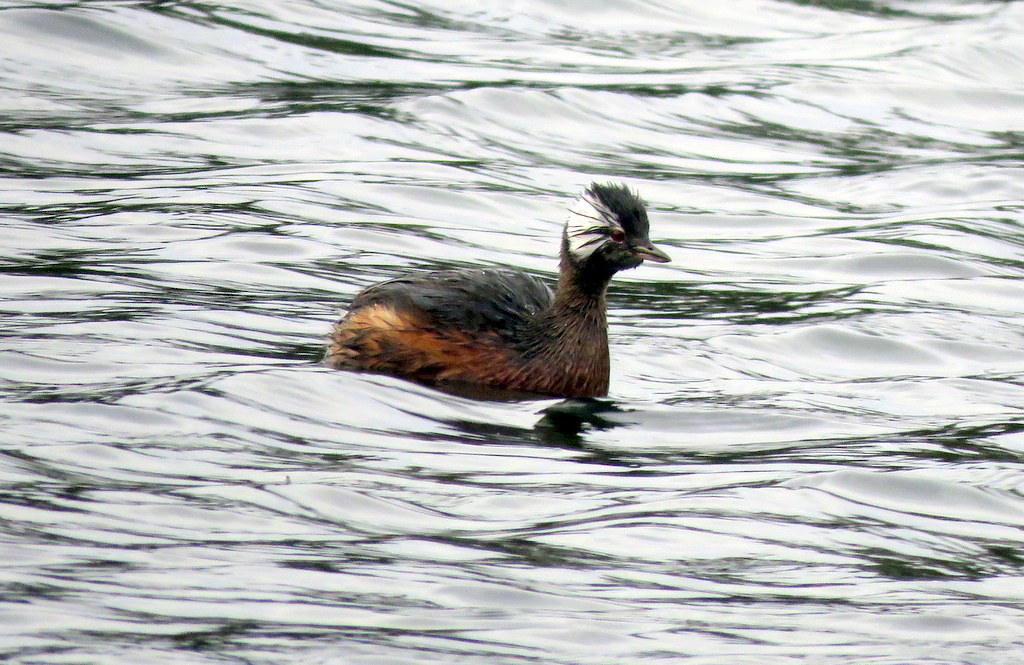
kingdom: Animalia
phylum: Chordata
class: Aves
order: Podicipediformes
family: Podicipedidae
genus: Rollandia
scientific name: Rollandia rolland
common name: White-tufted grebe
